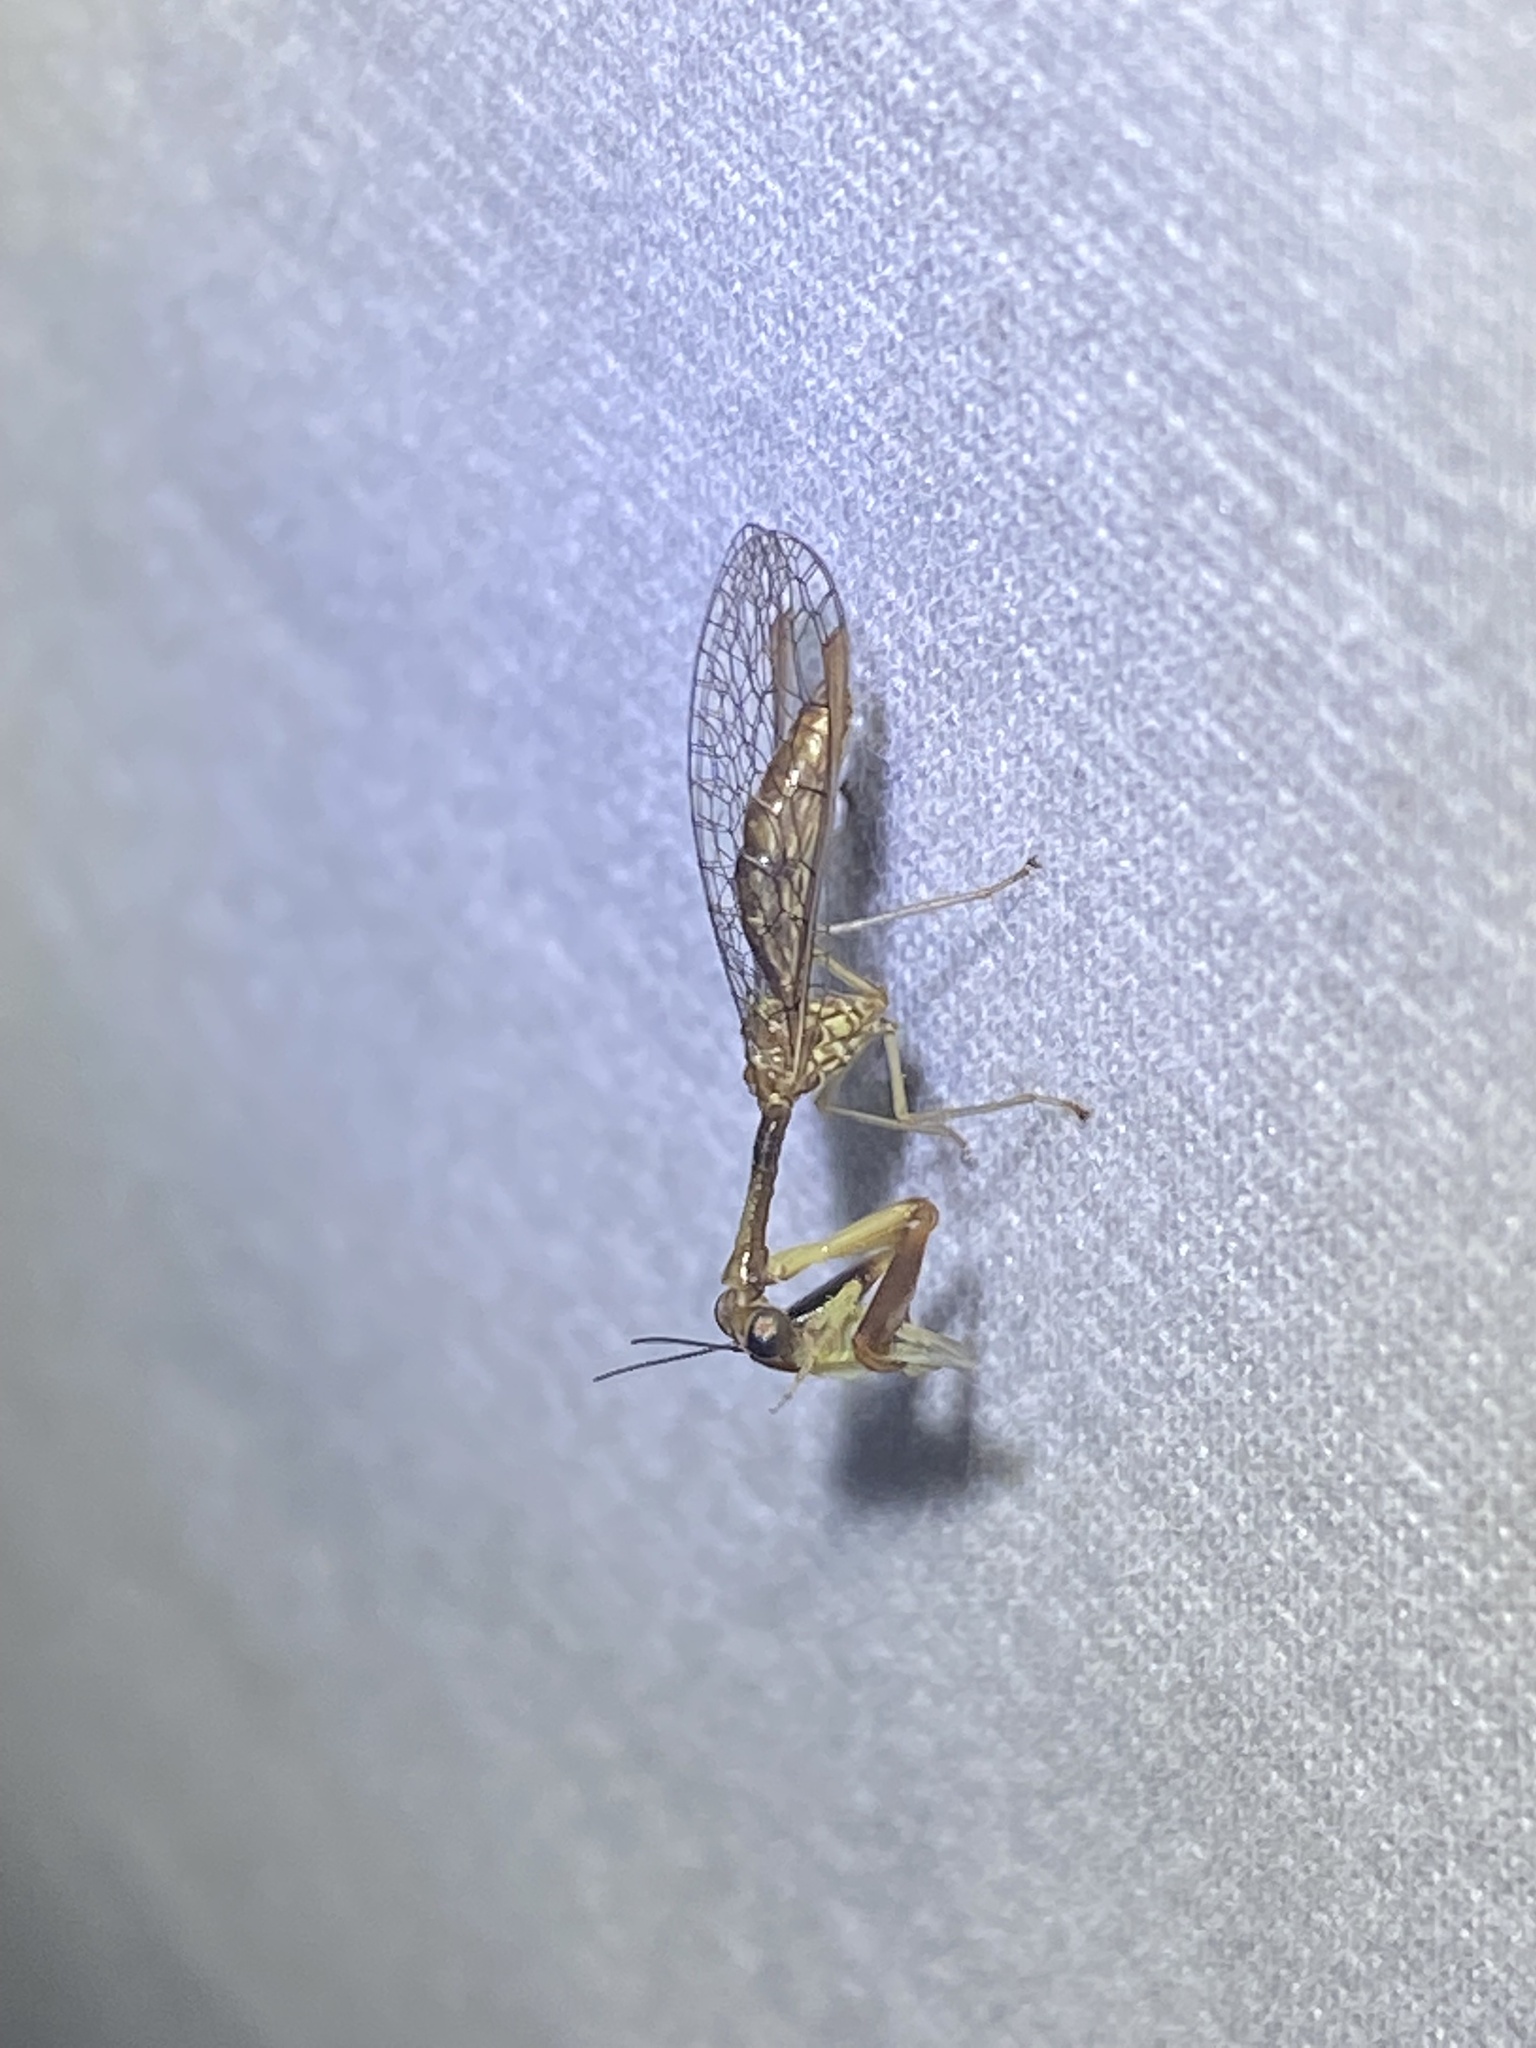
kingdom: Animalia
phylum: Arthropoda
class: Insecta
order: Neuroptera
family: Mantispidae
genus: Leptomantispa
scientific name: Leptomantispa pulchella
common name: Stevens's mantidfly
